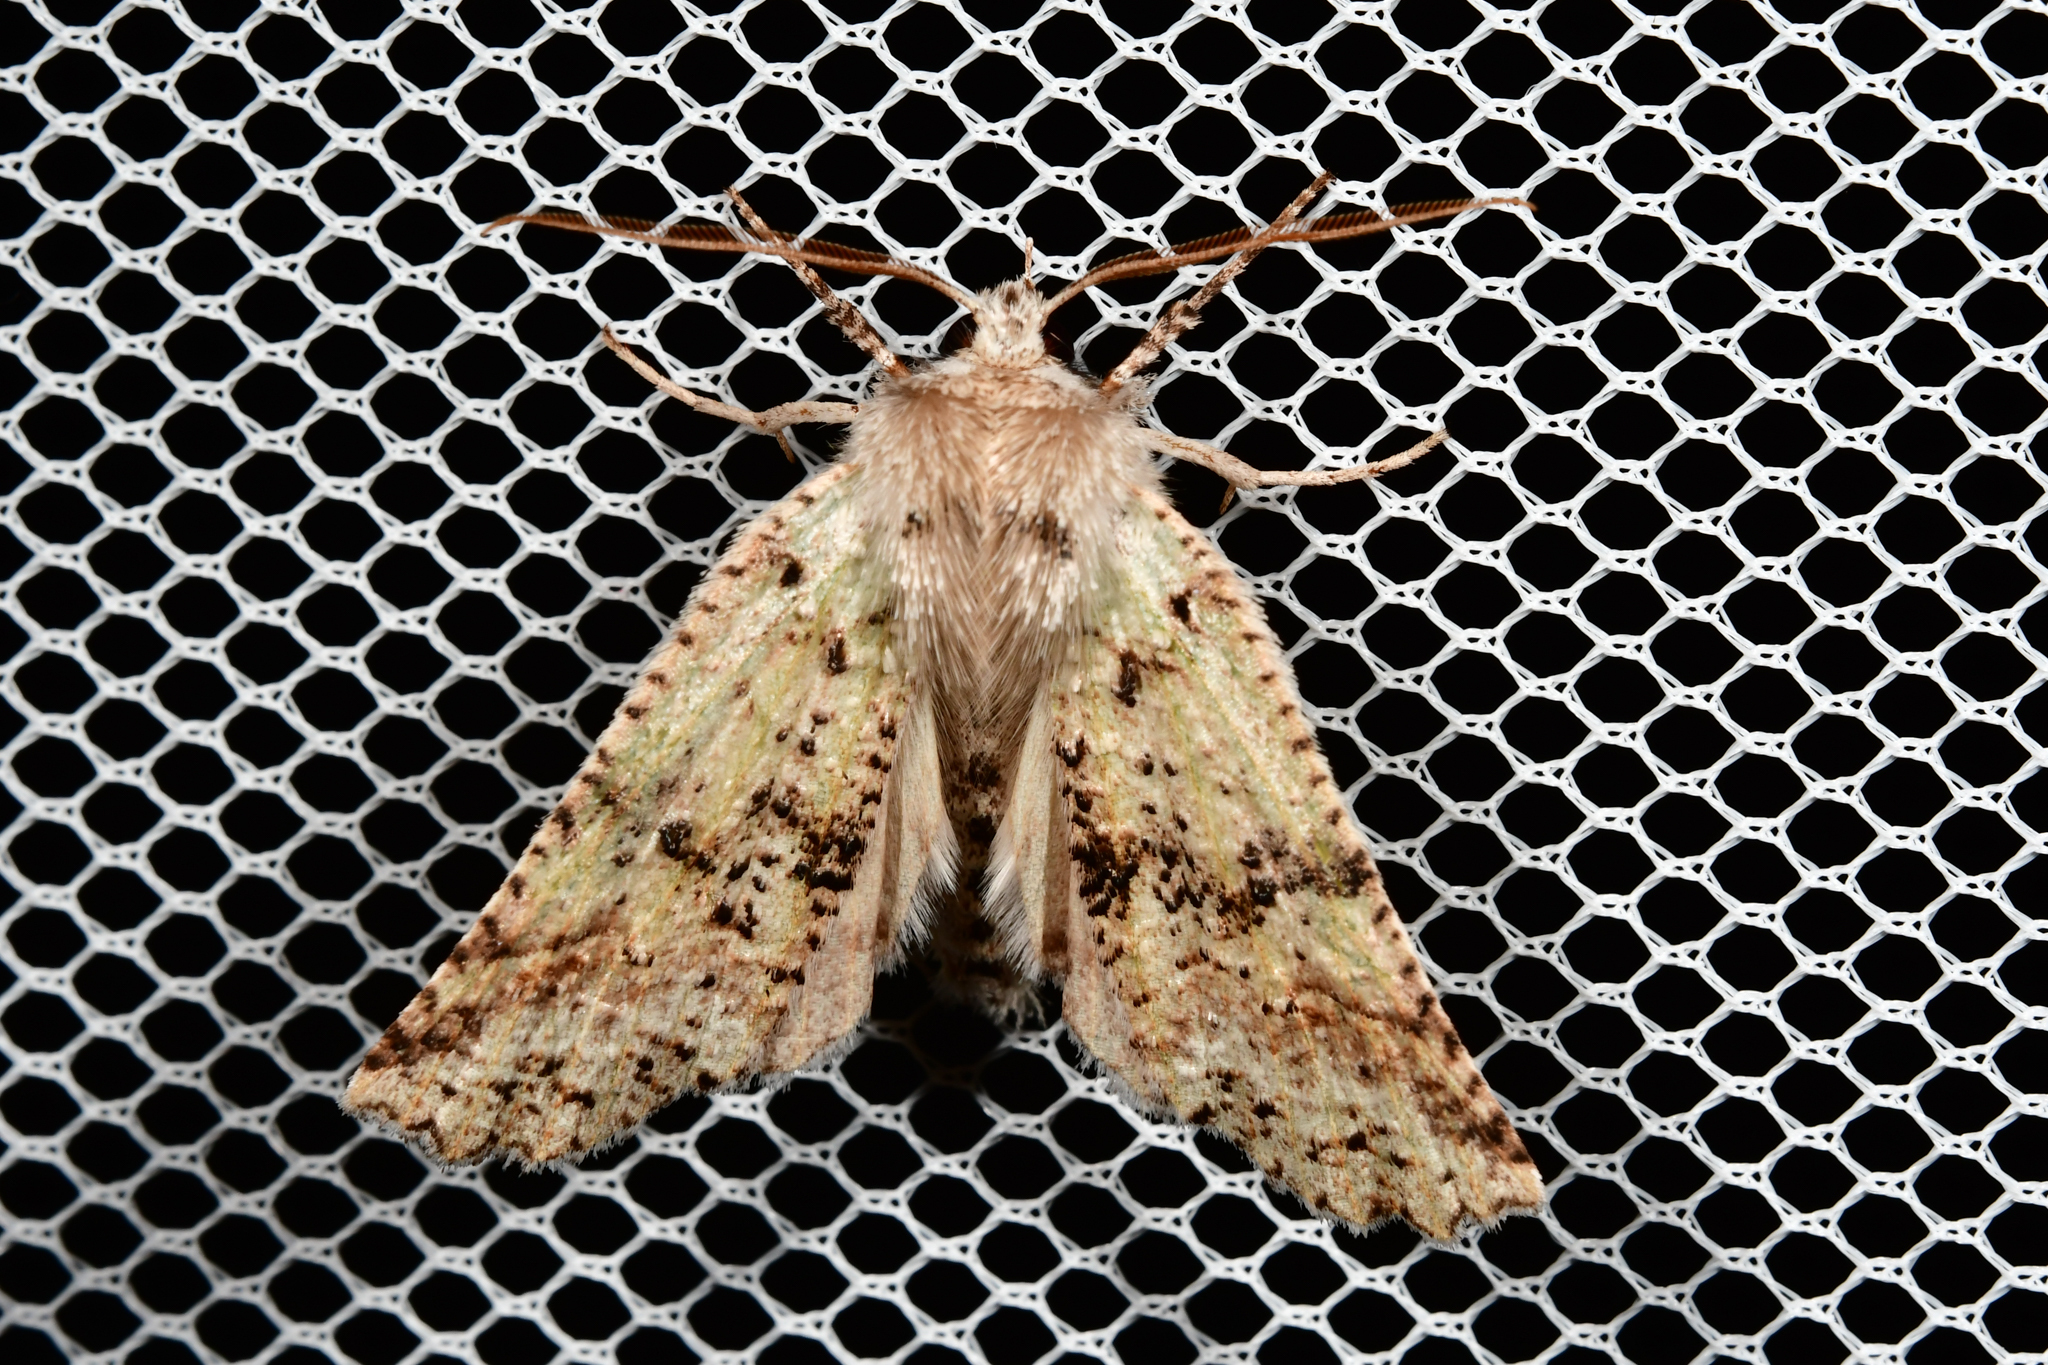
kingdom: Animalia
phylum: Arthropoda
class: Insecta
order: Lepidoptera
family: Geometridae
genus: Declana
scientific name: Declana floccosa
